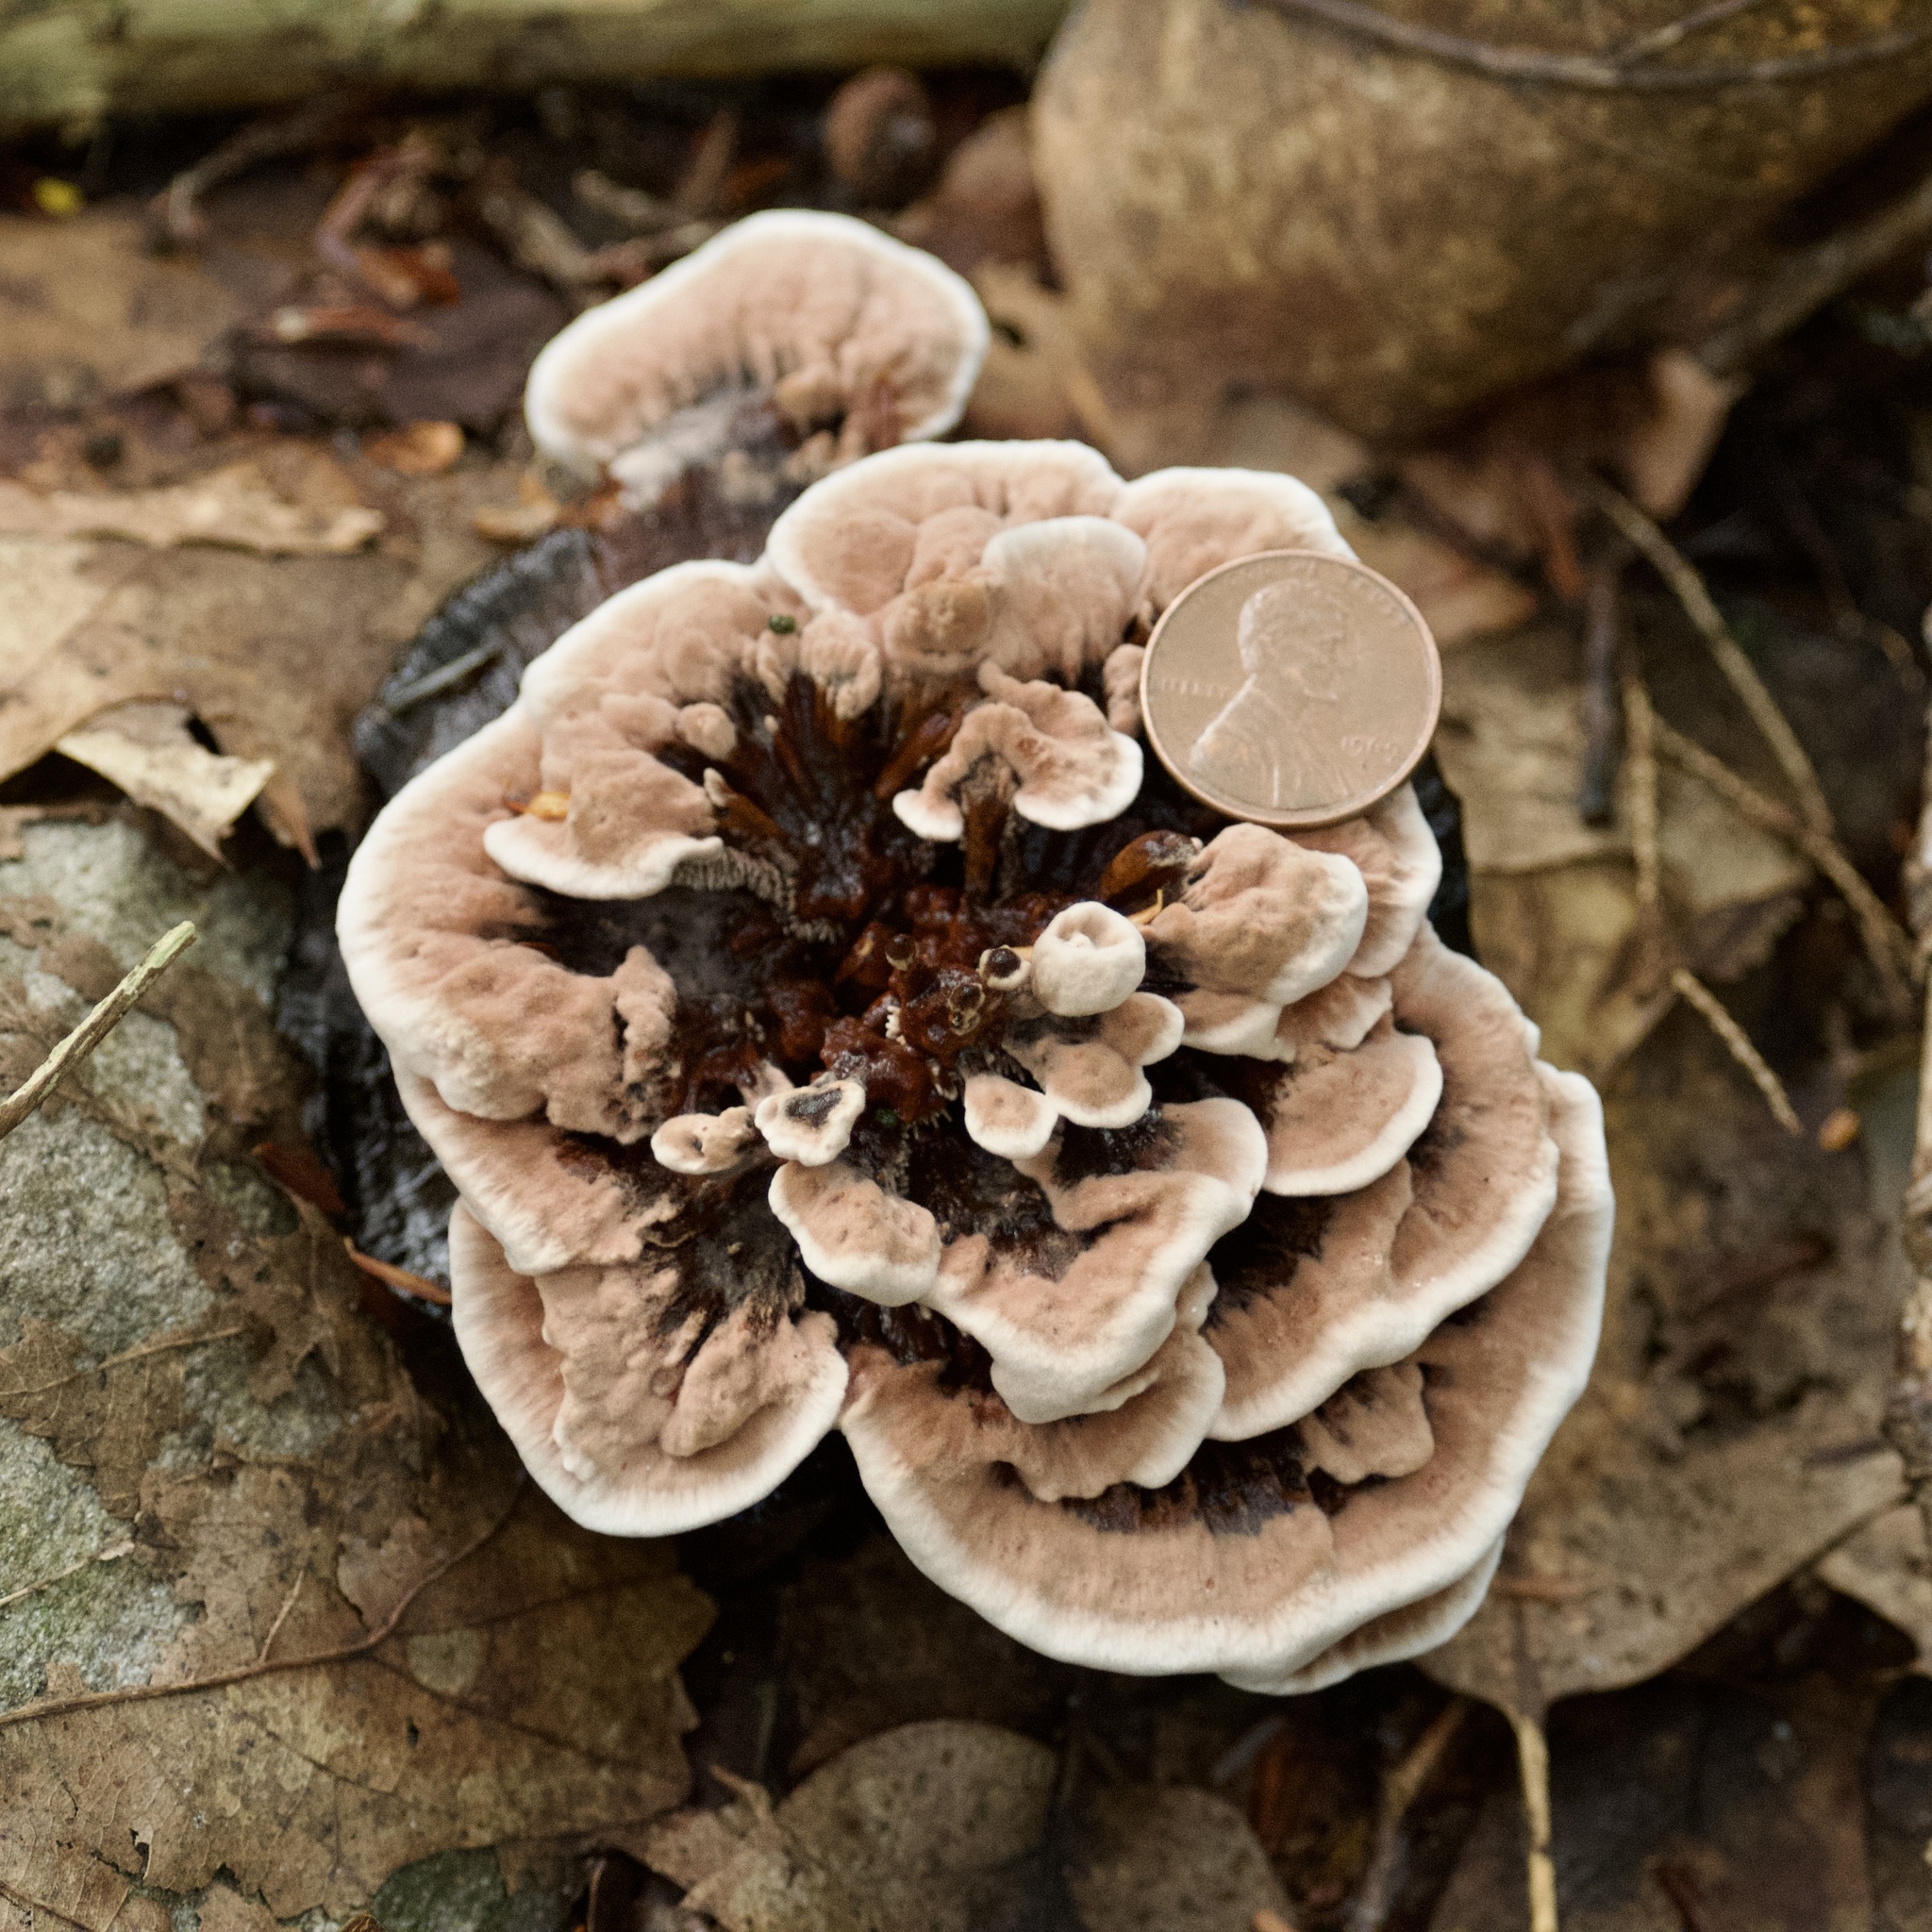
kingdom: Fungi
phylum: Basidiomycota
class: Agaricomycetes
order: Thelephorales
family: Bankeraceae
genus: Hydnellum
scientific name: Hydnellum concrescens
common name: Zoned tooth
